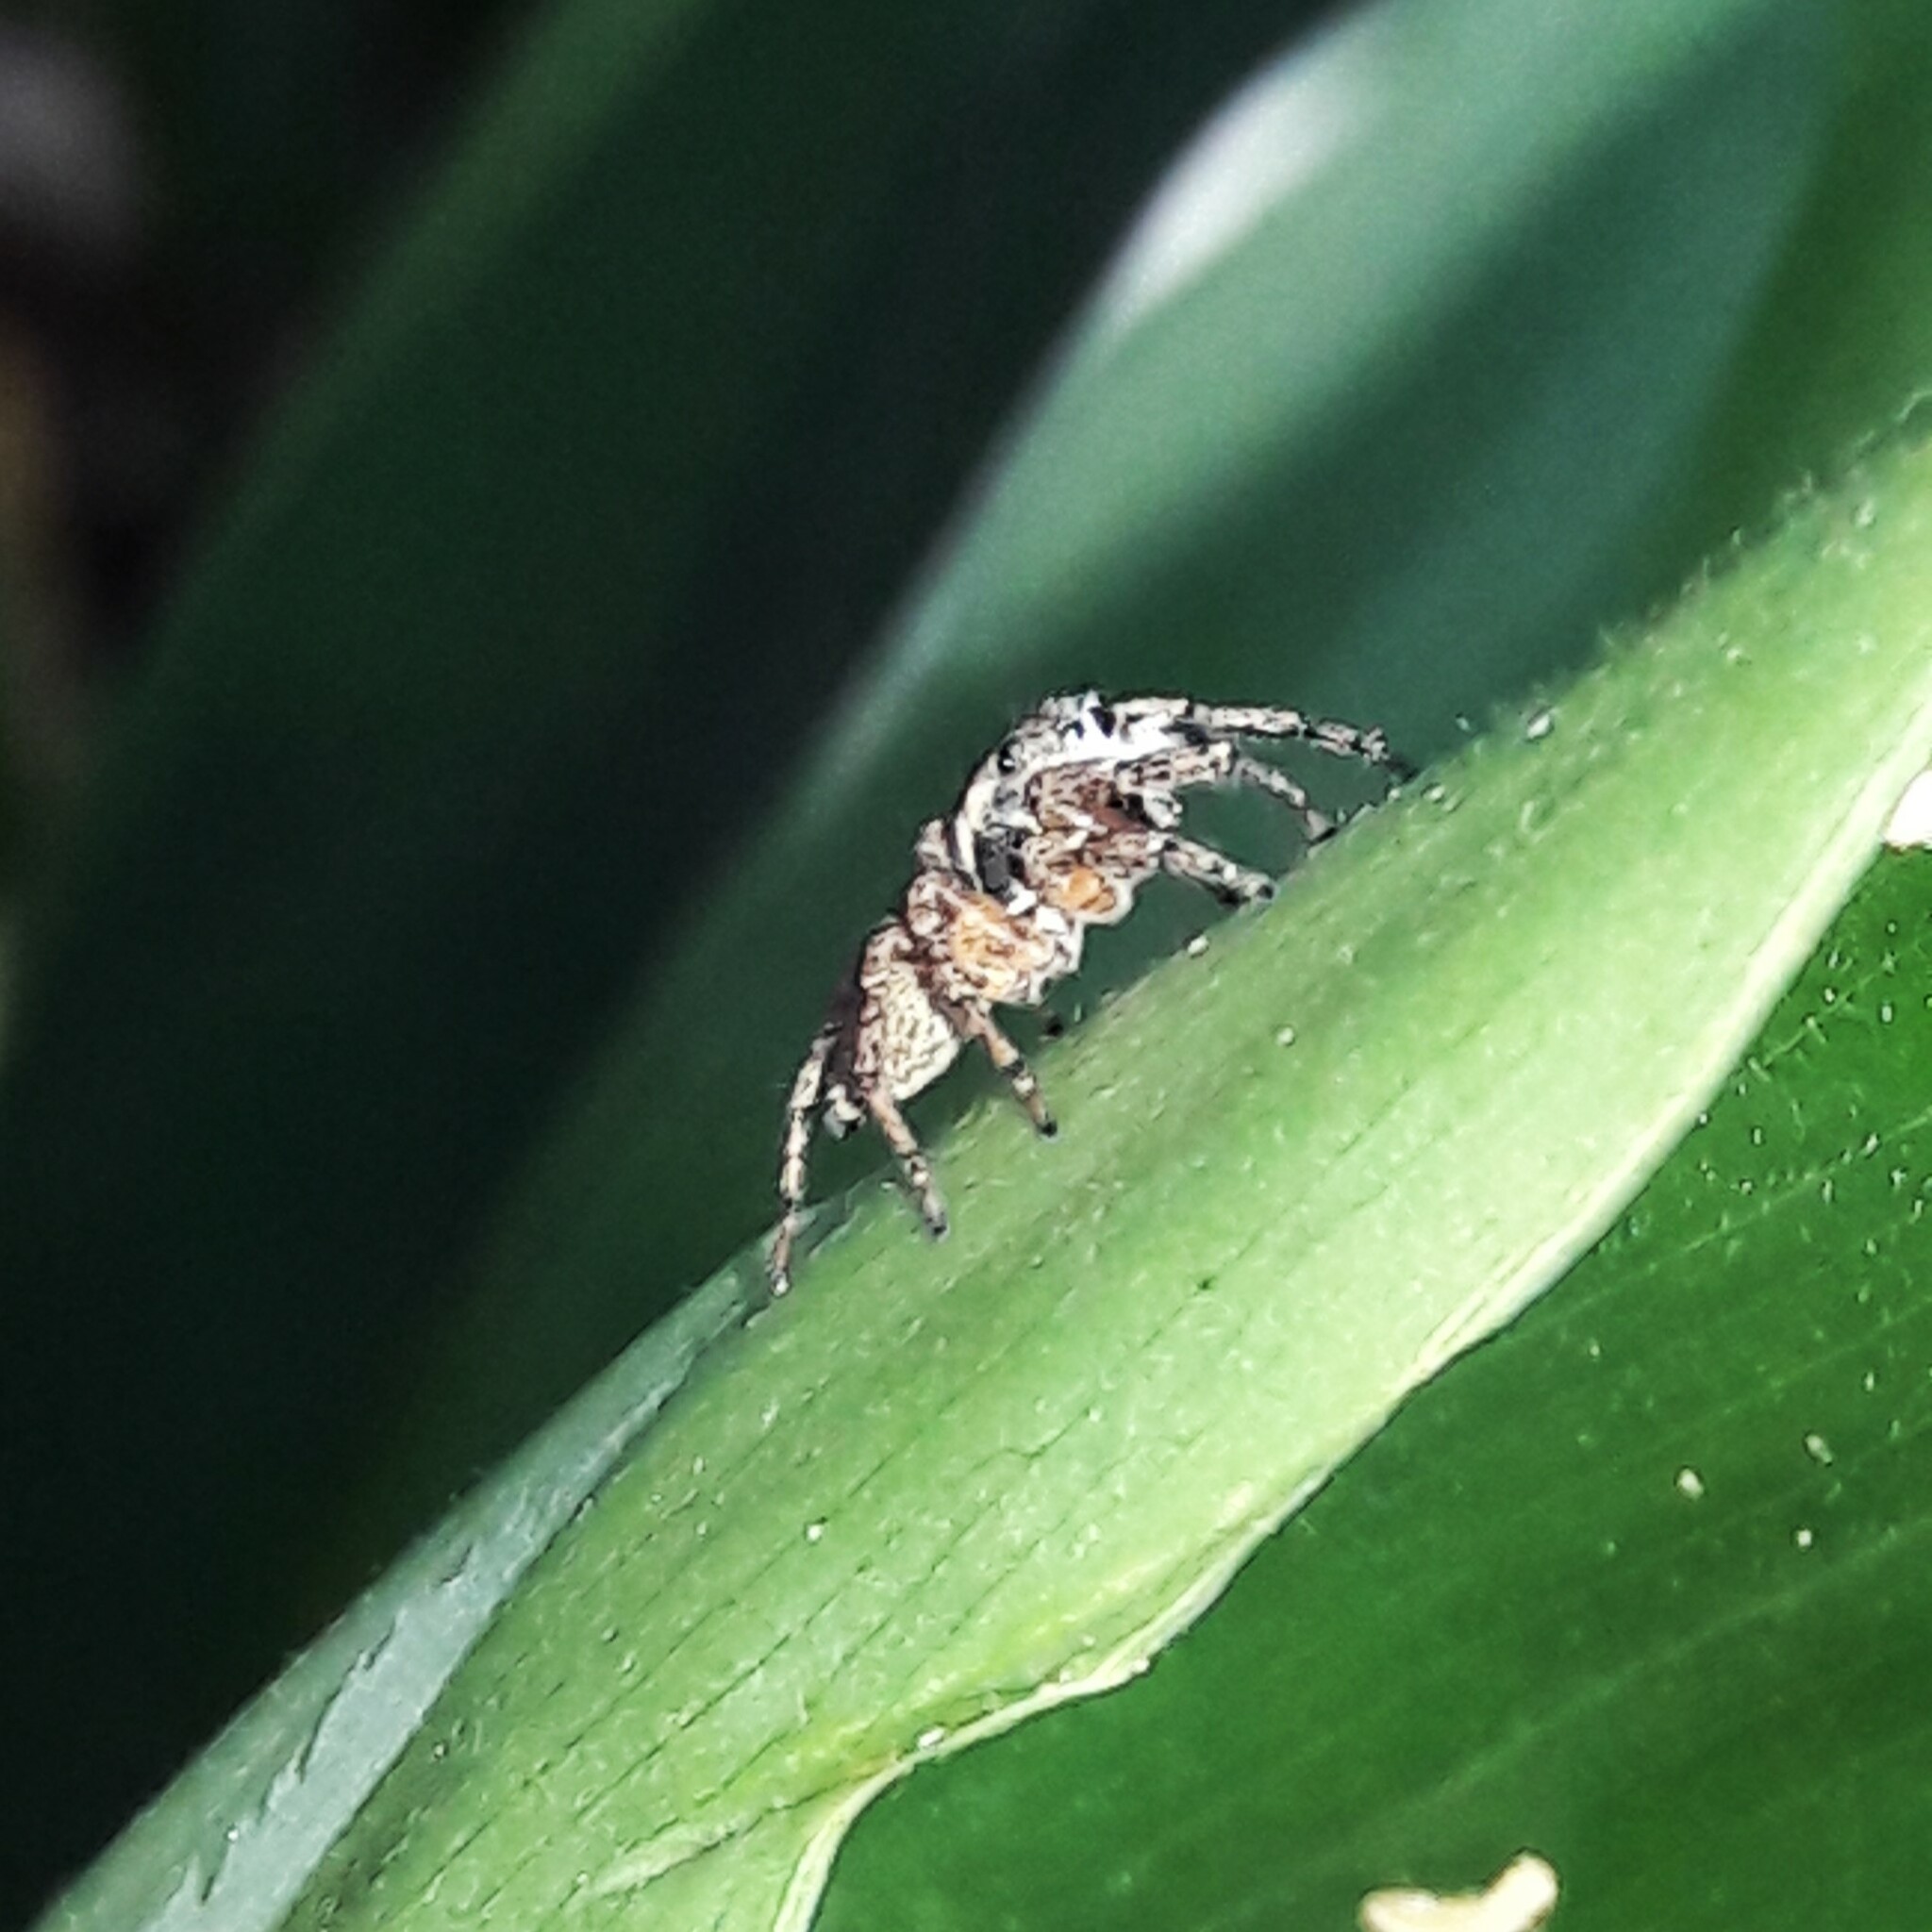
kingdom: Animalia
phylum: Arthropoda
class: Arachnida
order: Araneae
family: Salticidae
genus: Sumampattus
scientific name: Sumampattus quinqueradiatus
